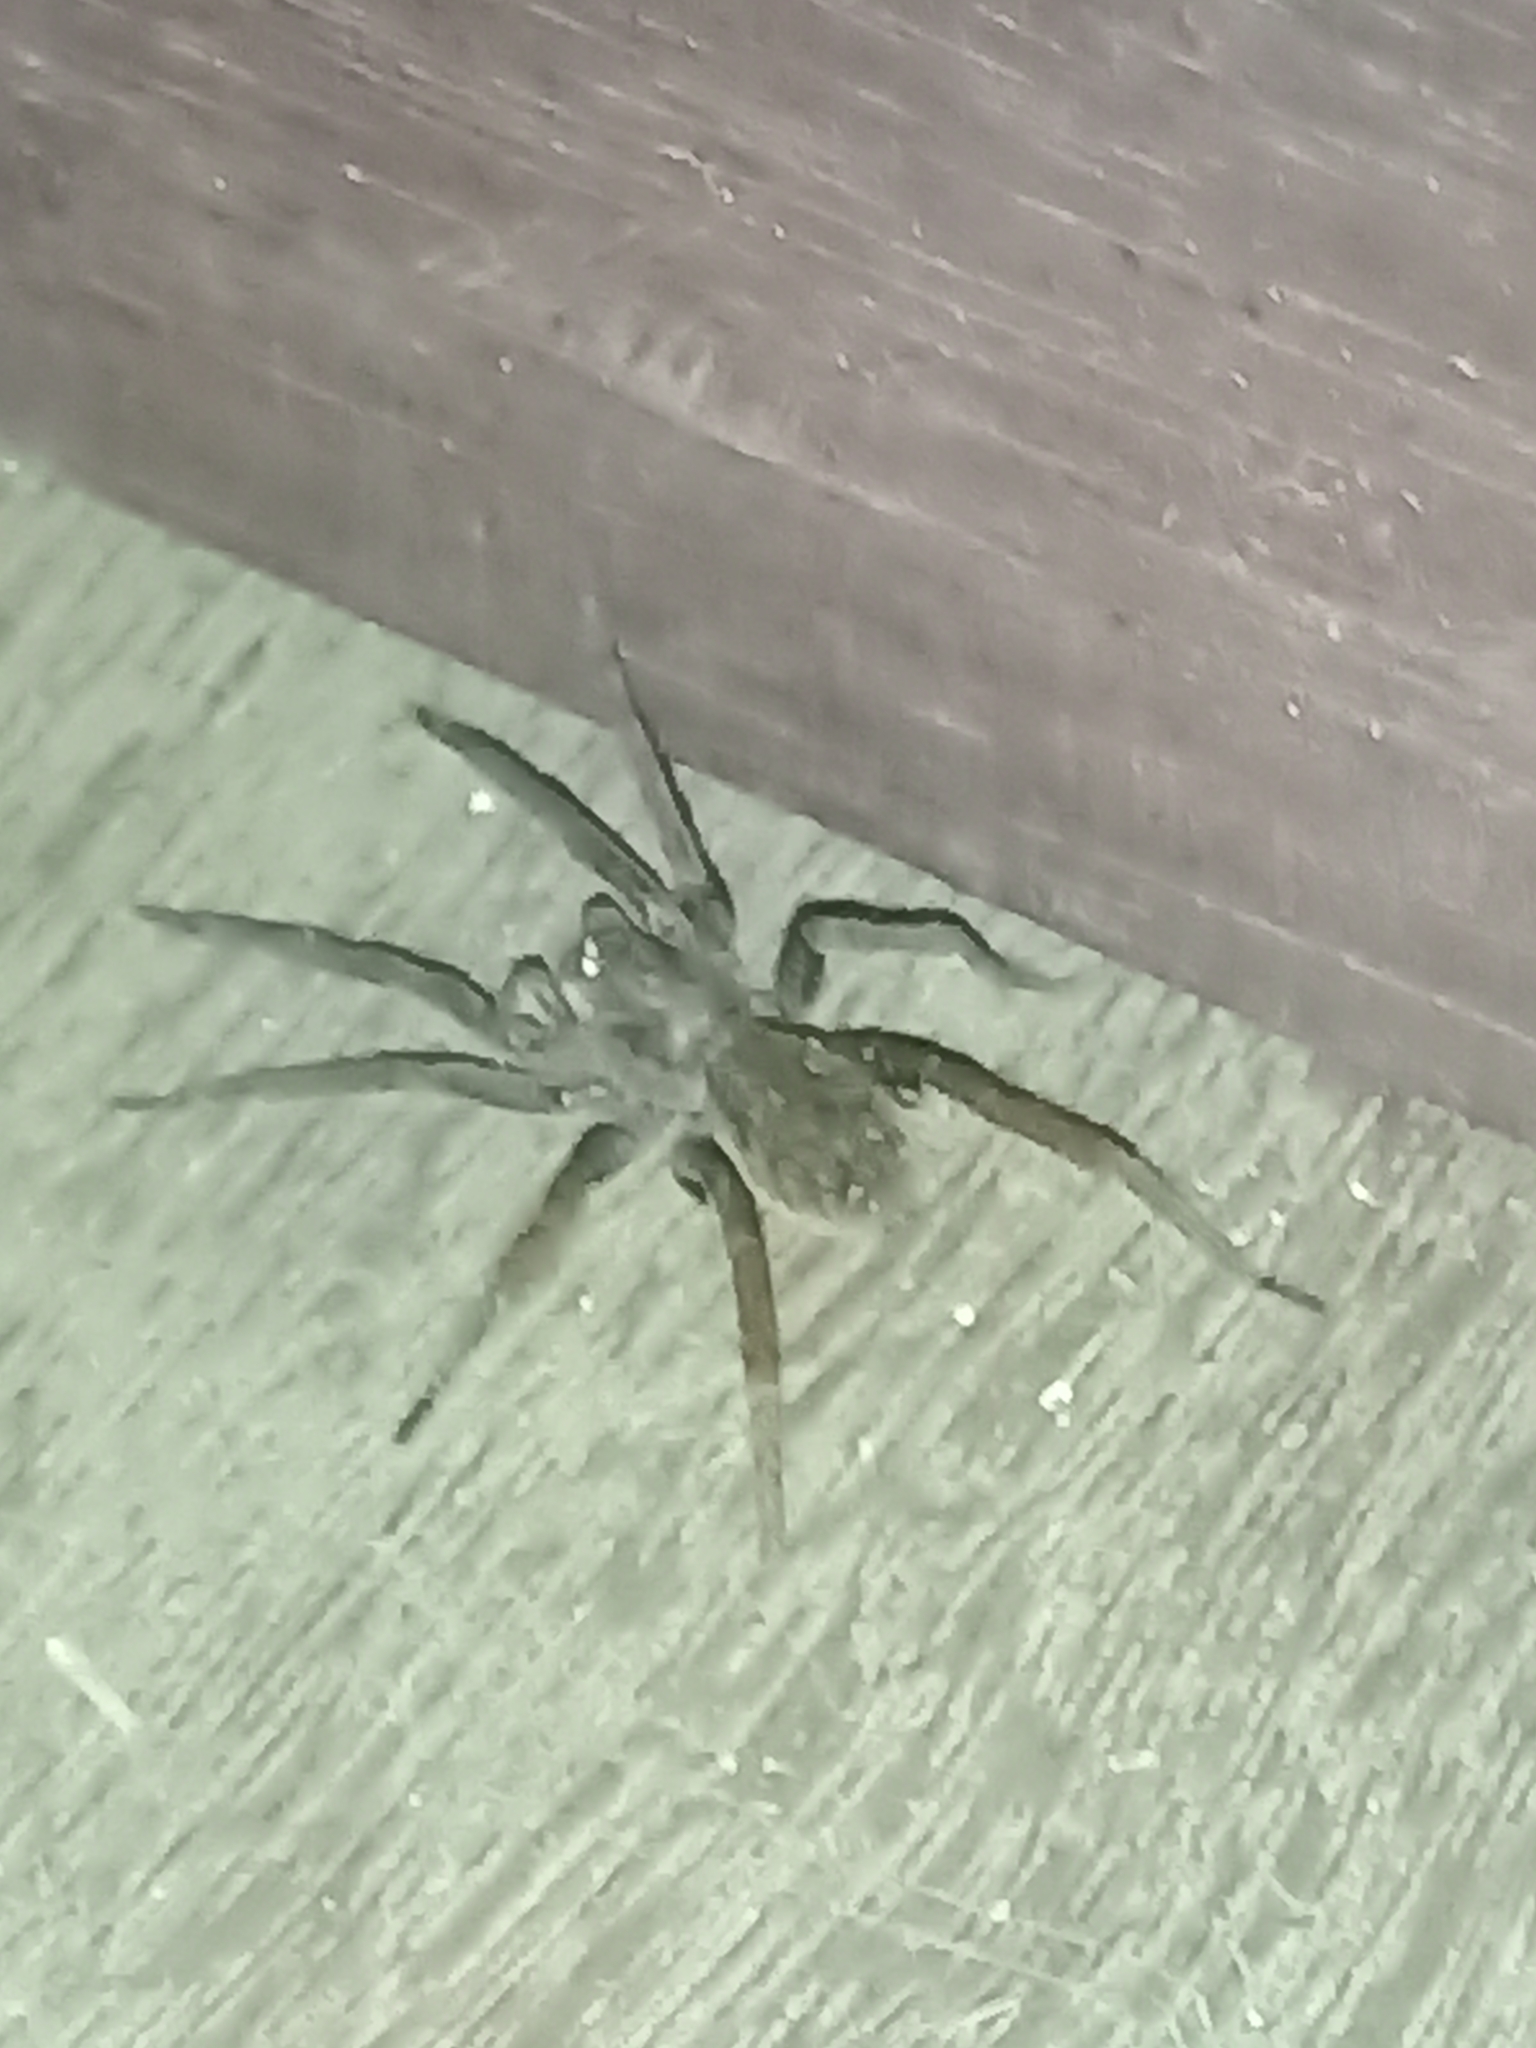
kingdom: Animalia
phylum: Arthropoda
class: Arachnida
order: Araneae
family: Ctenidae
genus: Ancylometes
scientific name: Ancylometes
